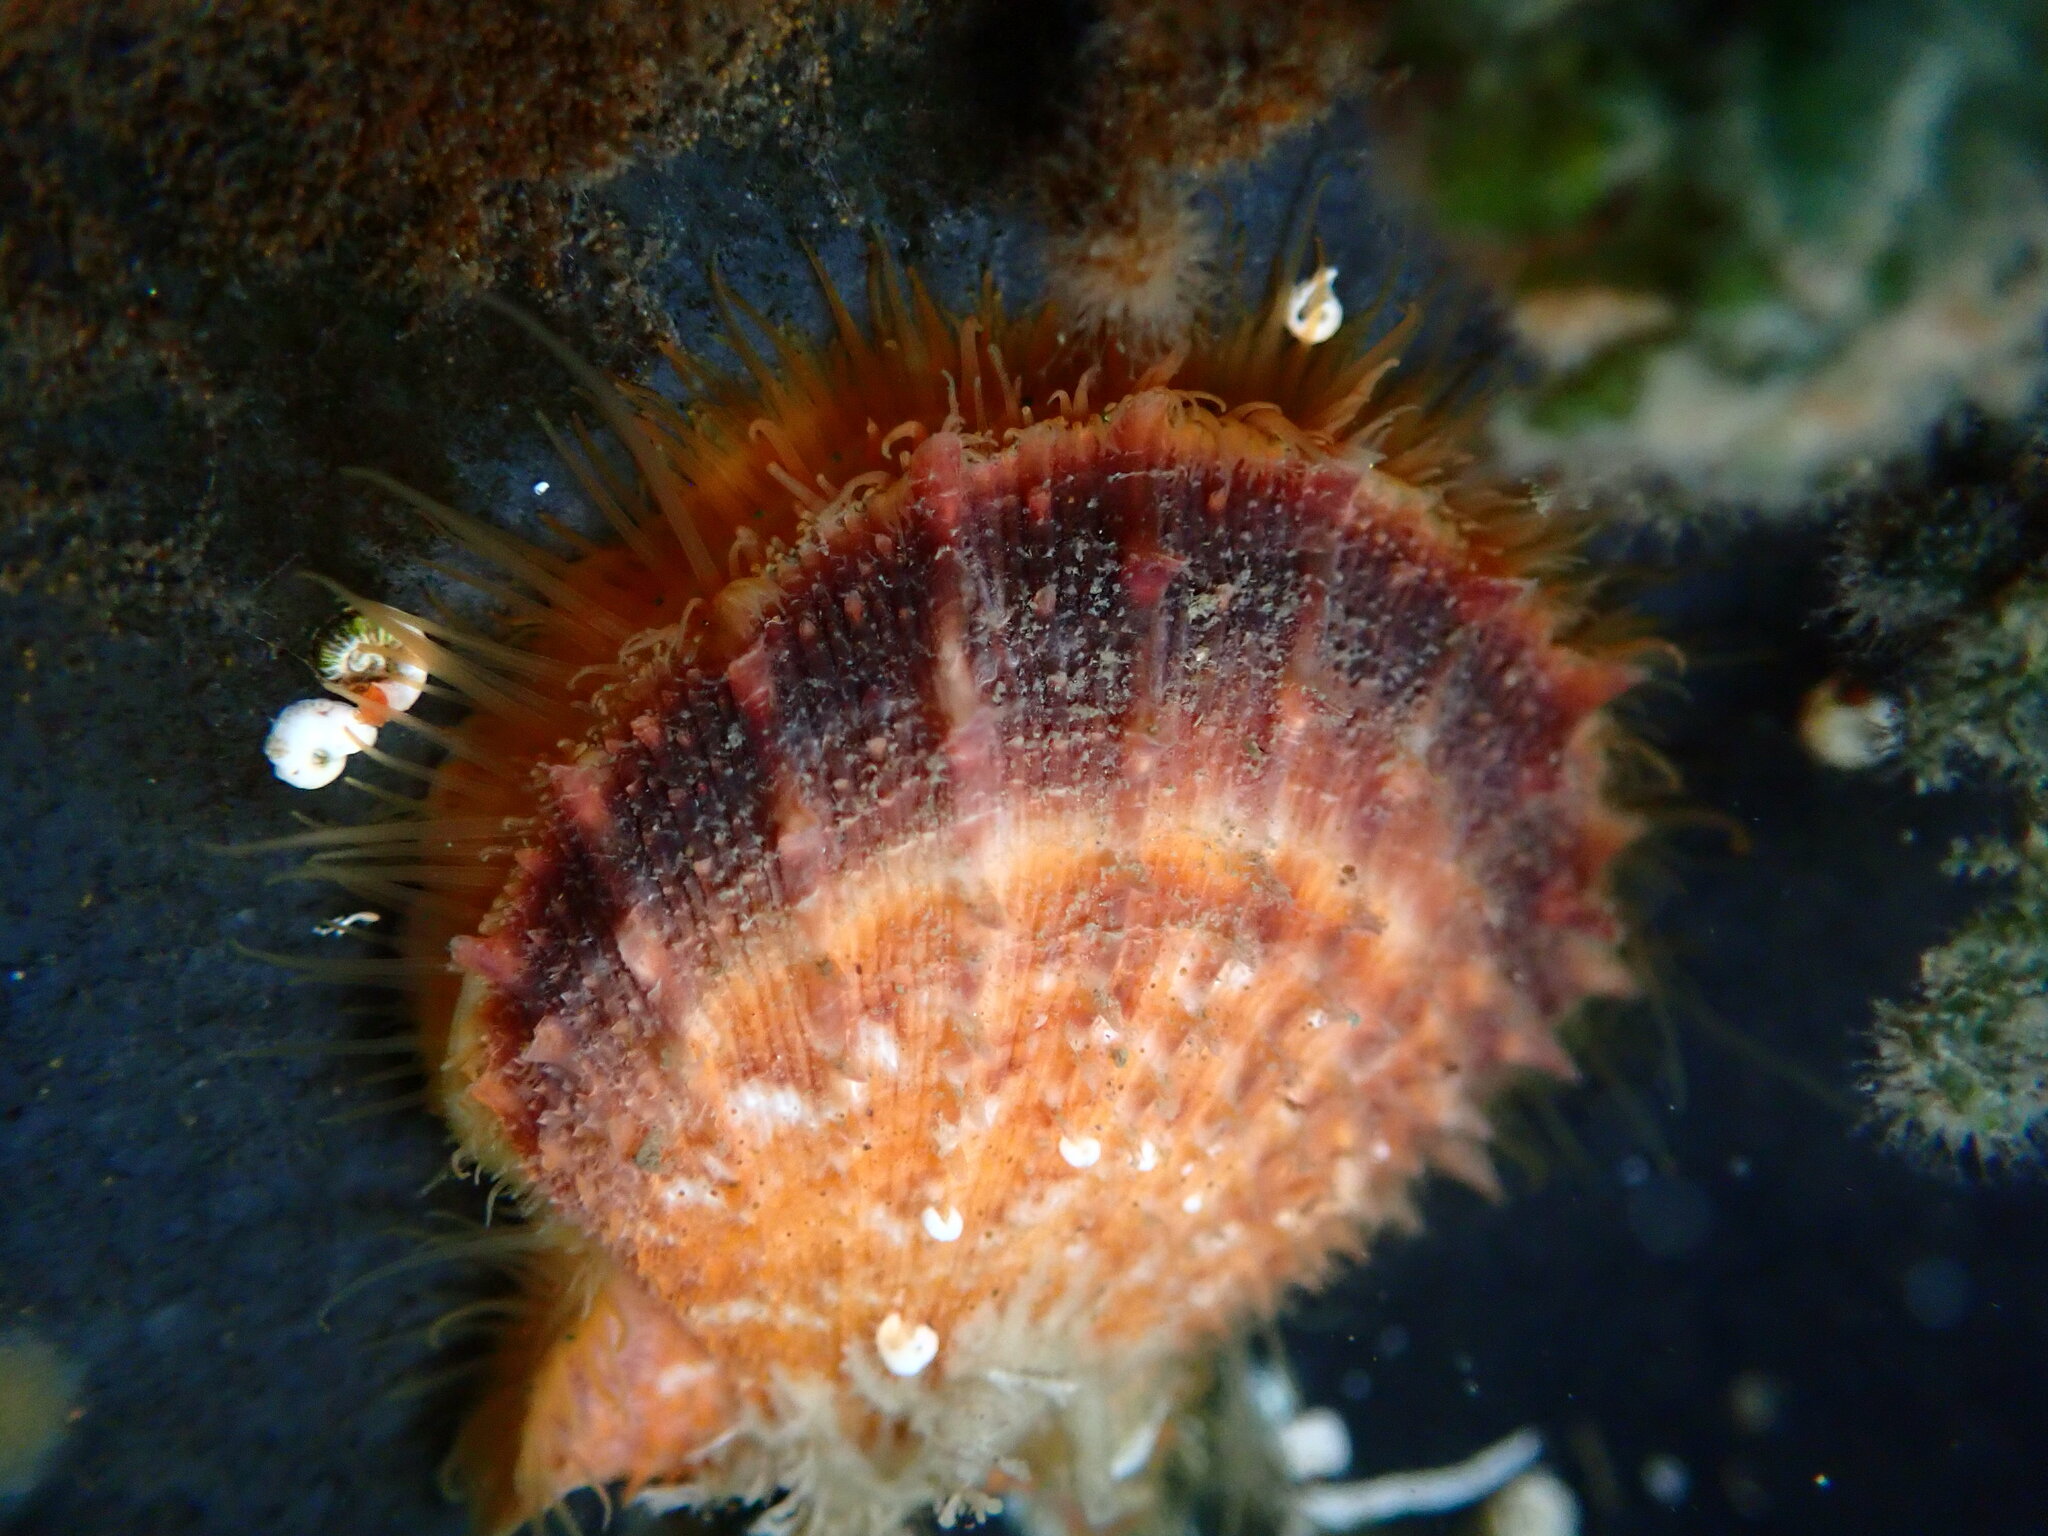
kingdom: Animalia
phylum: Mollusca
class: Bivalvia
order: Pectinida
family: Pectinidae
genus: Crassadoma
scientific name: Crassadoma gigantea
